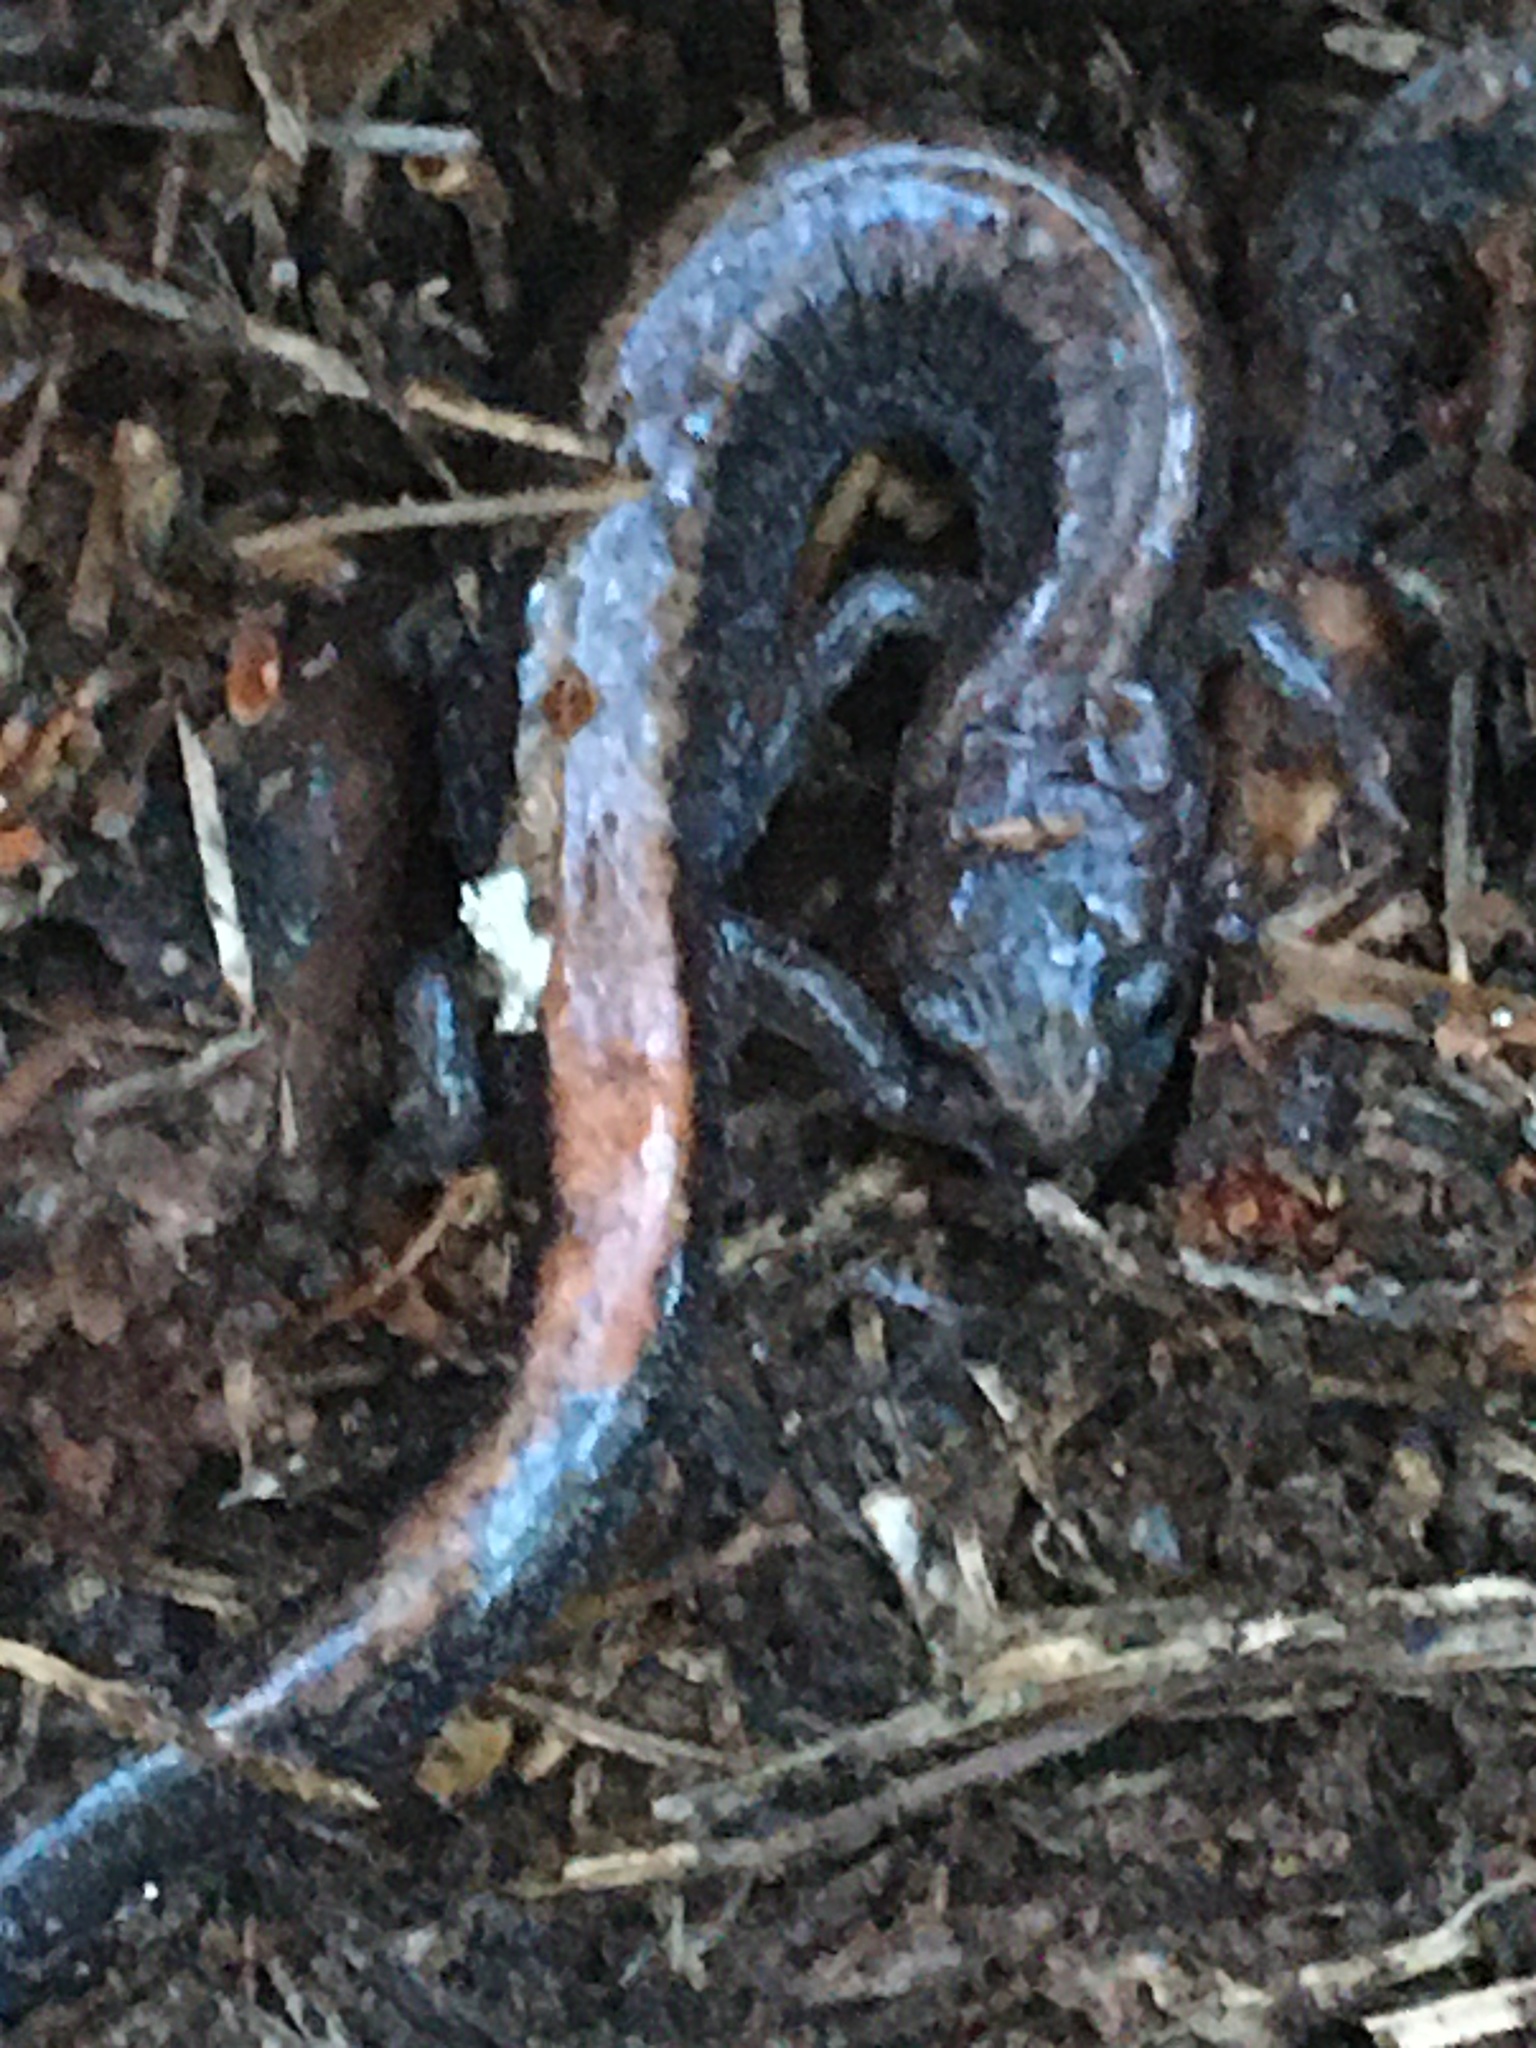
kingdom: Animalia
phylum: Chordata
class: Amphibia
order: Caudata
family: Plethodontidae
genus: Plethodon
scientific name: Plethodon cinereus
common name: Redback salamander
